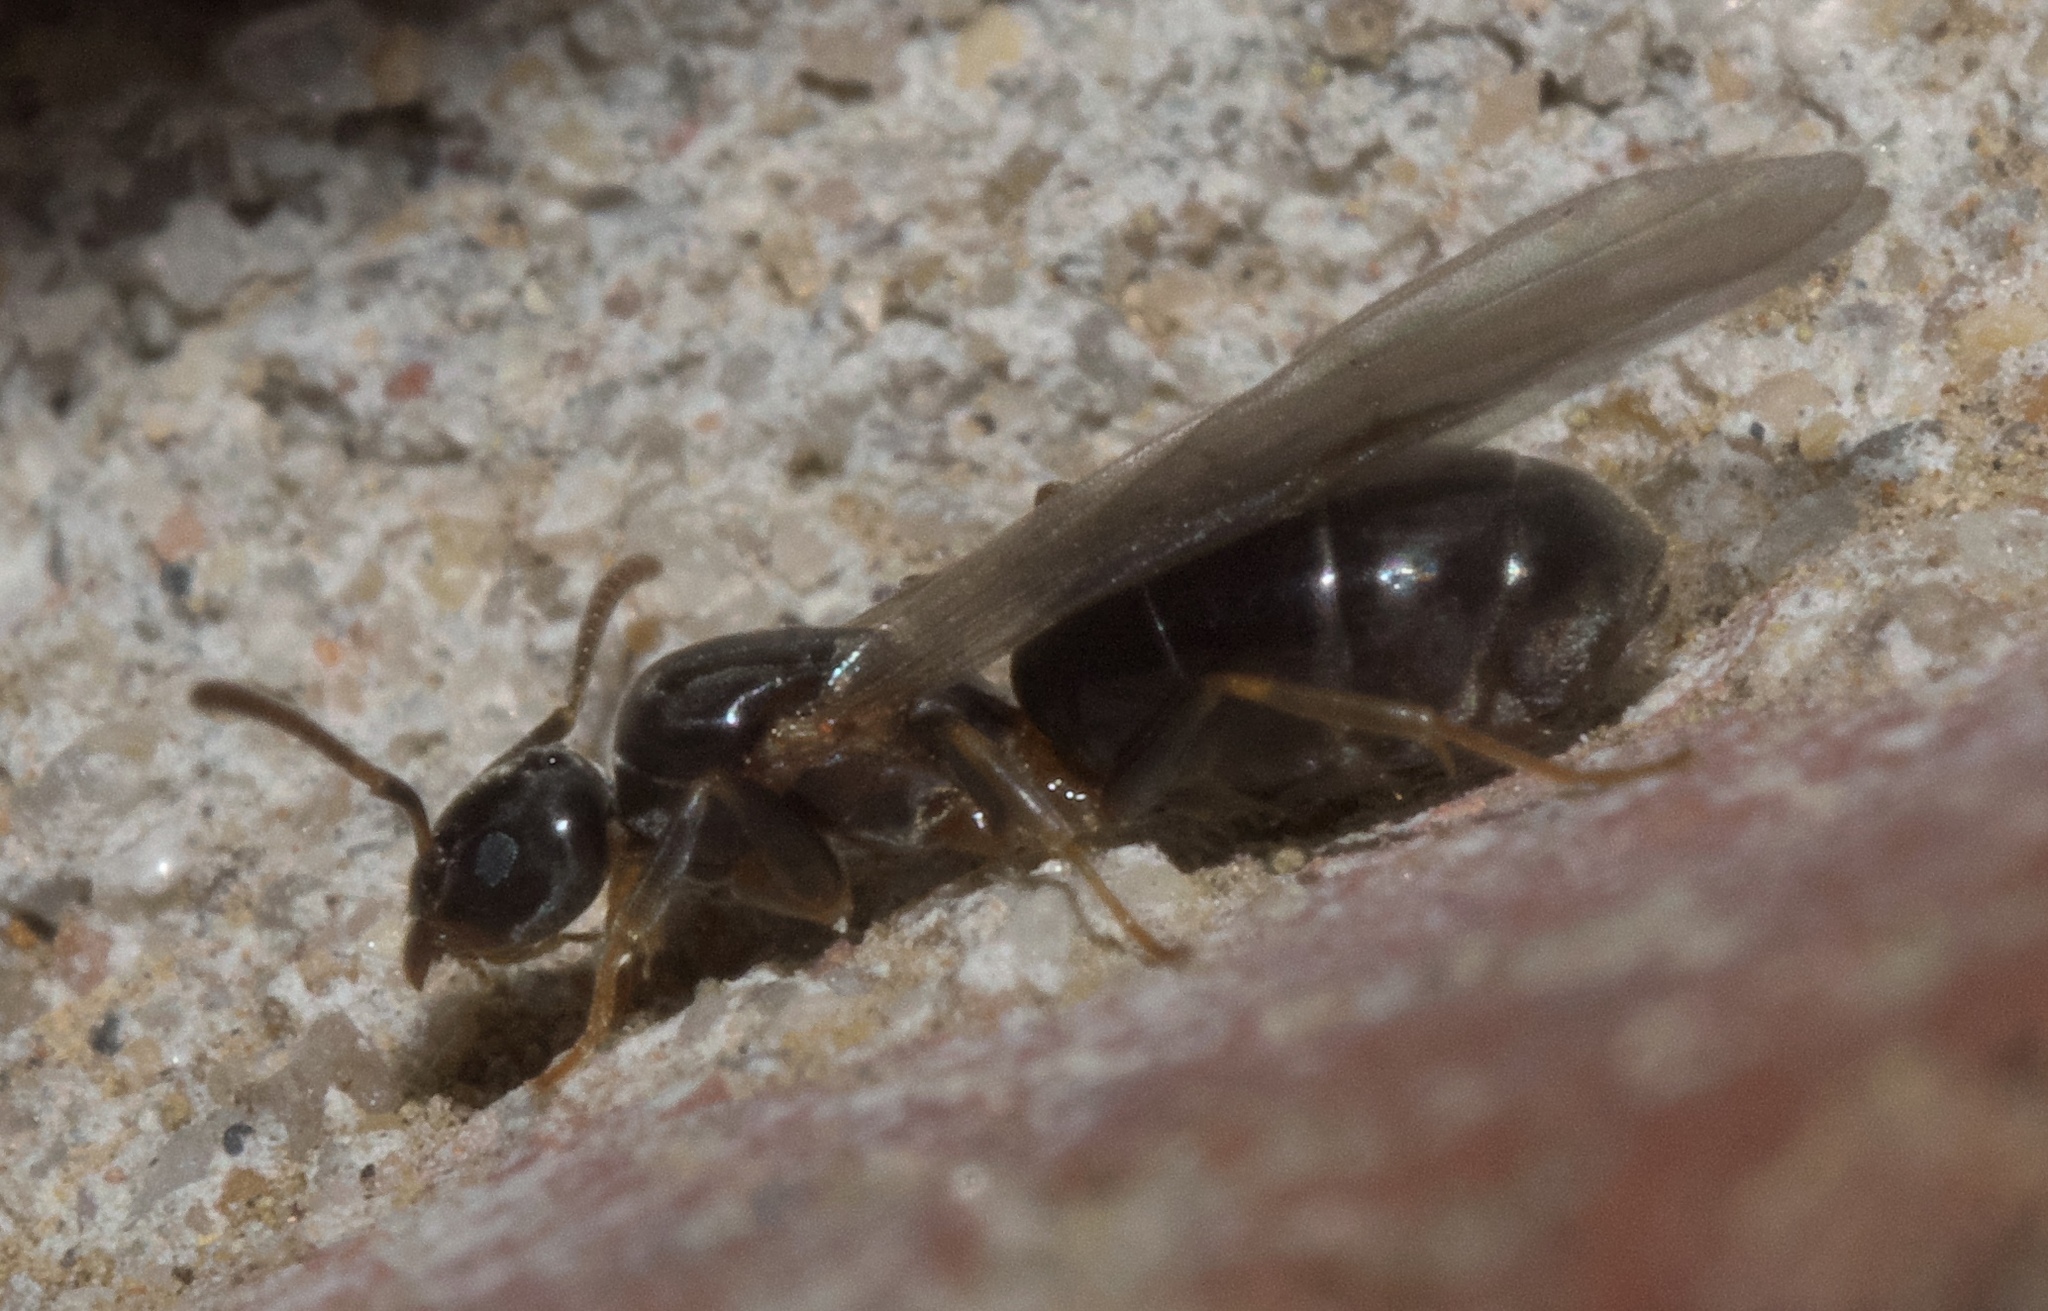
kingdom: Animalia
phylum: Arthropoda
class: Insecta
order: Hymenoptera
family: Formicidae
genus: Tapinoma
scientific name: Tapinoma sessile
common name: Odorous house ant
